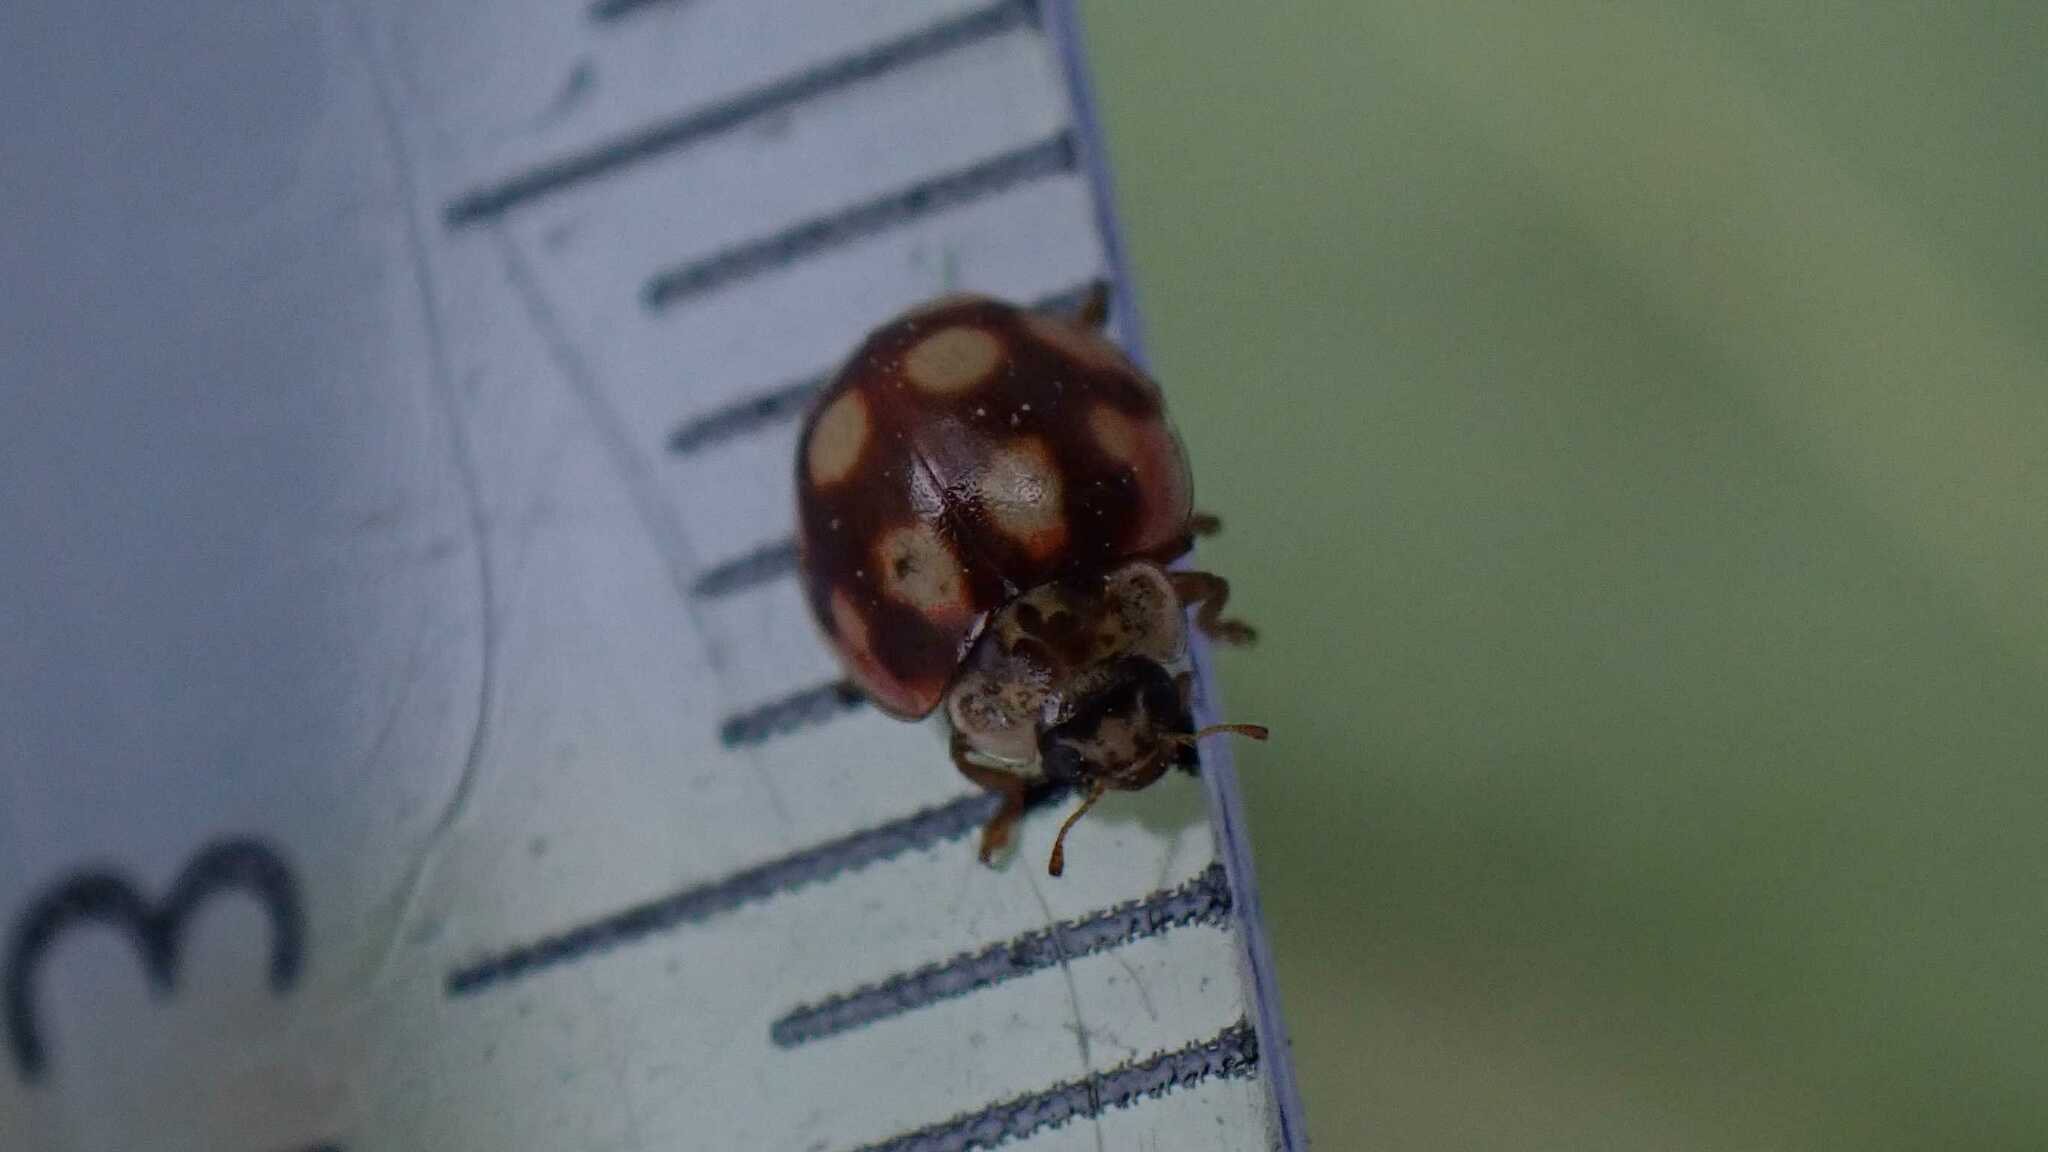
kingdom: Animalia
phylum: Arthropoda
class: Insecta
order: Coleoptera
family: Coccinellidae
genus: Adalia
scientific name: Adalia decempunctata
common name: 10-spot ladybird
